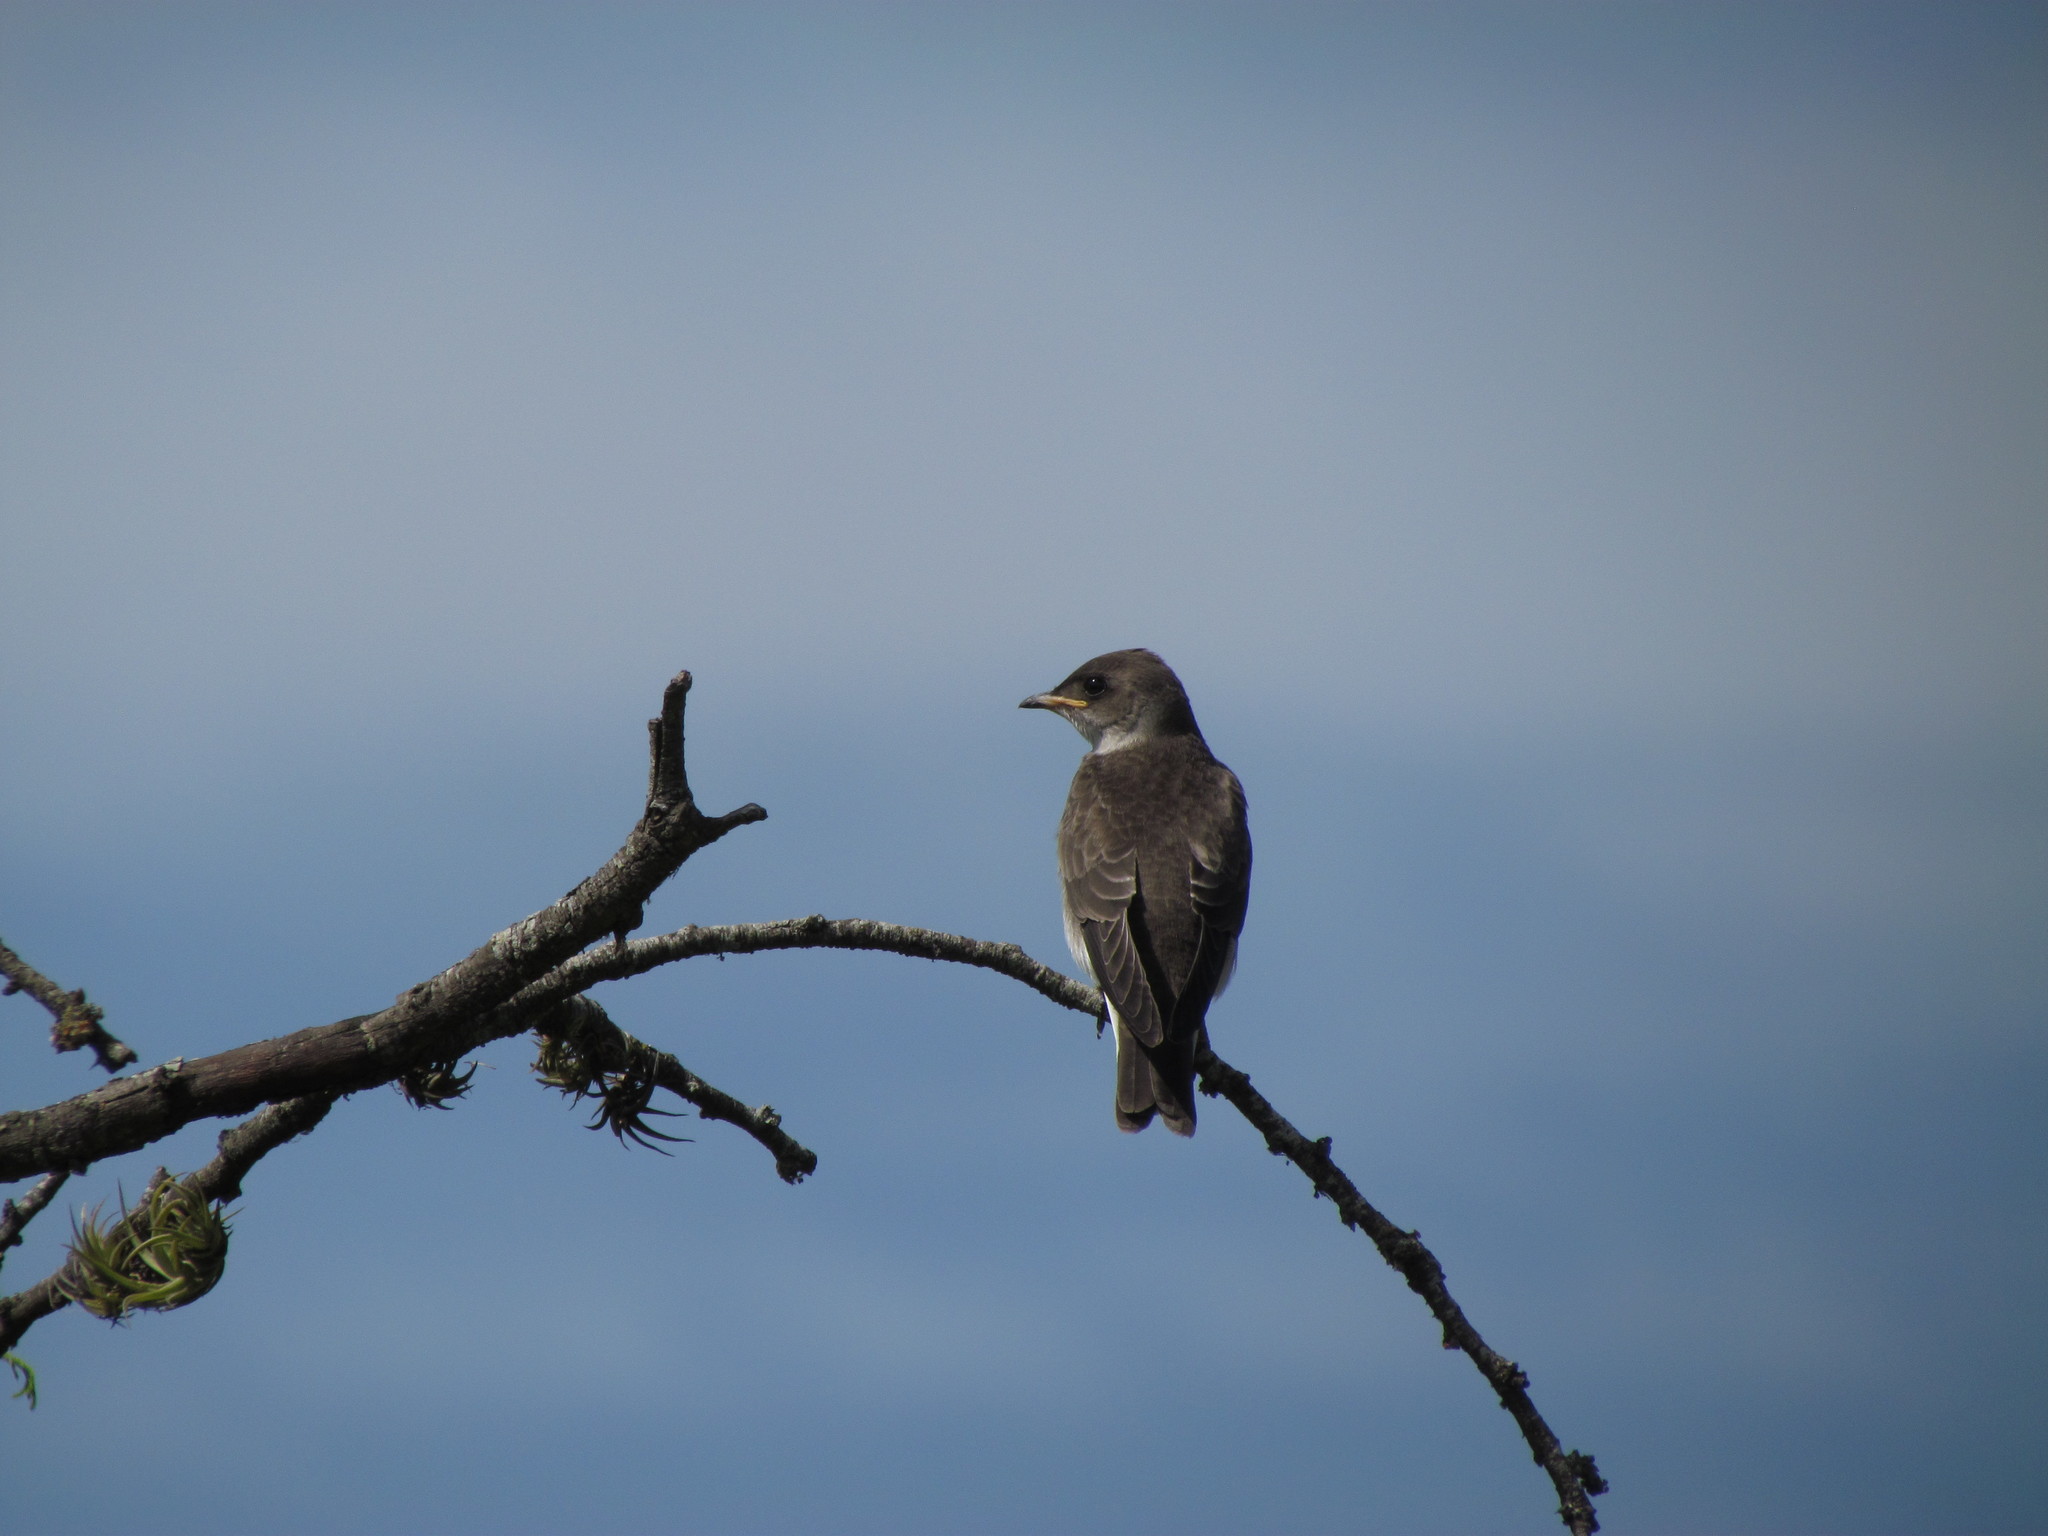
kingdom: Animalia
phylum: Chordata
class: Aves
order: Passeriformes
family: Hirundinidae
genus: Progne
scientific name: Progne tapera
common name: Brown-chested martin
